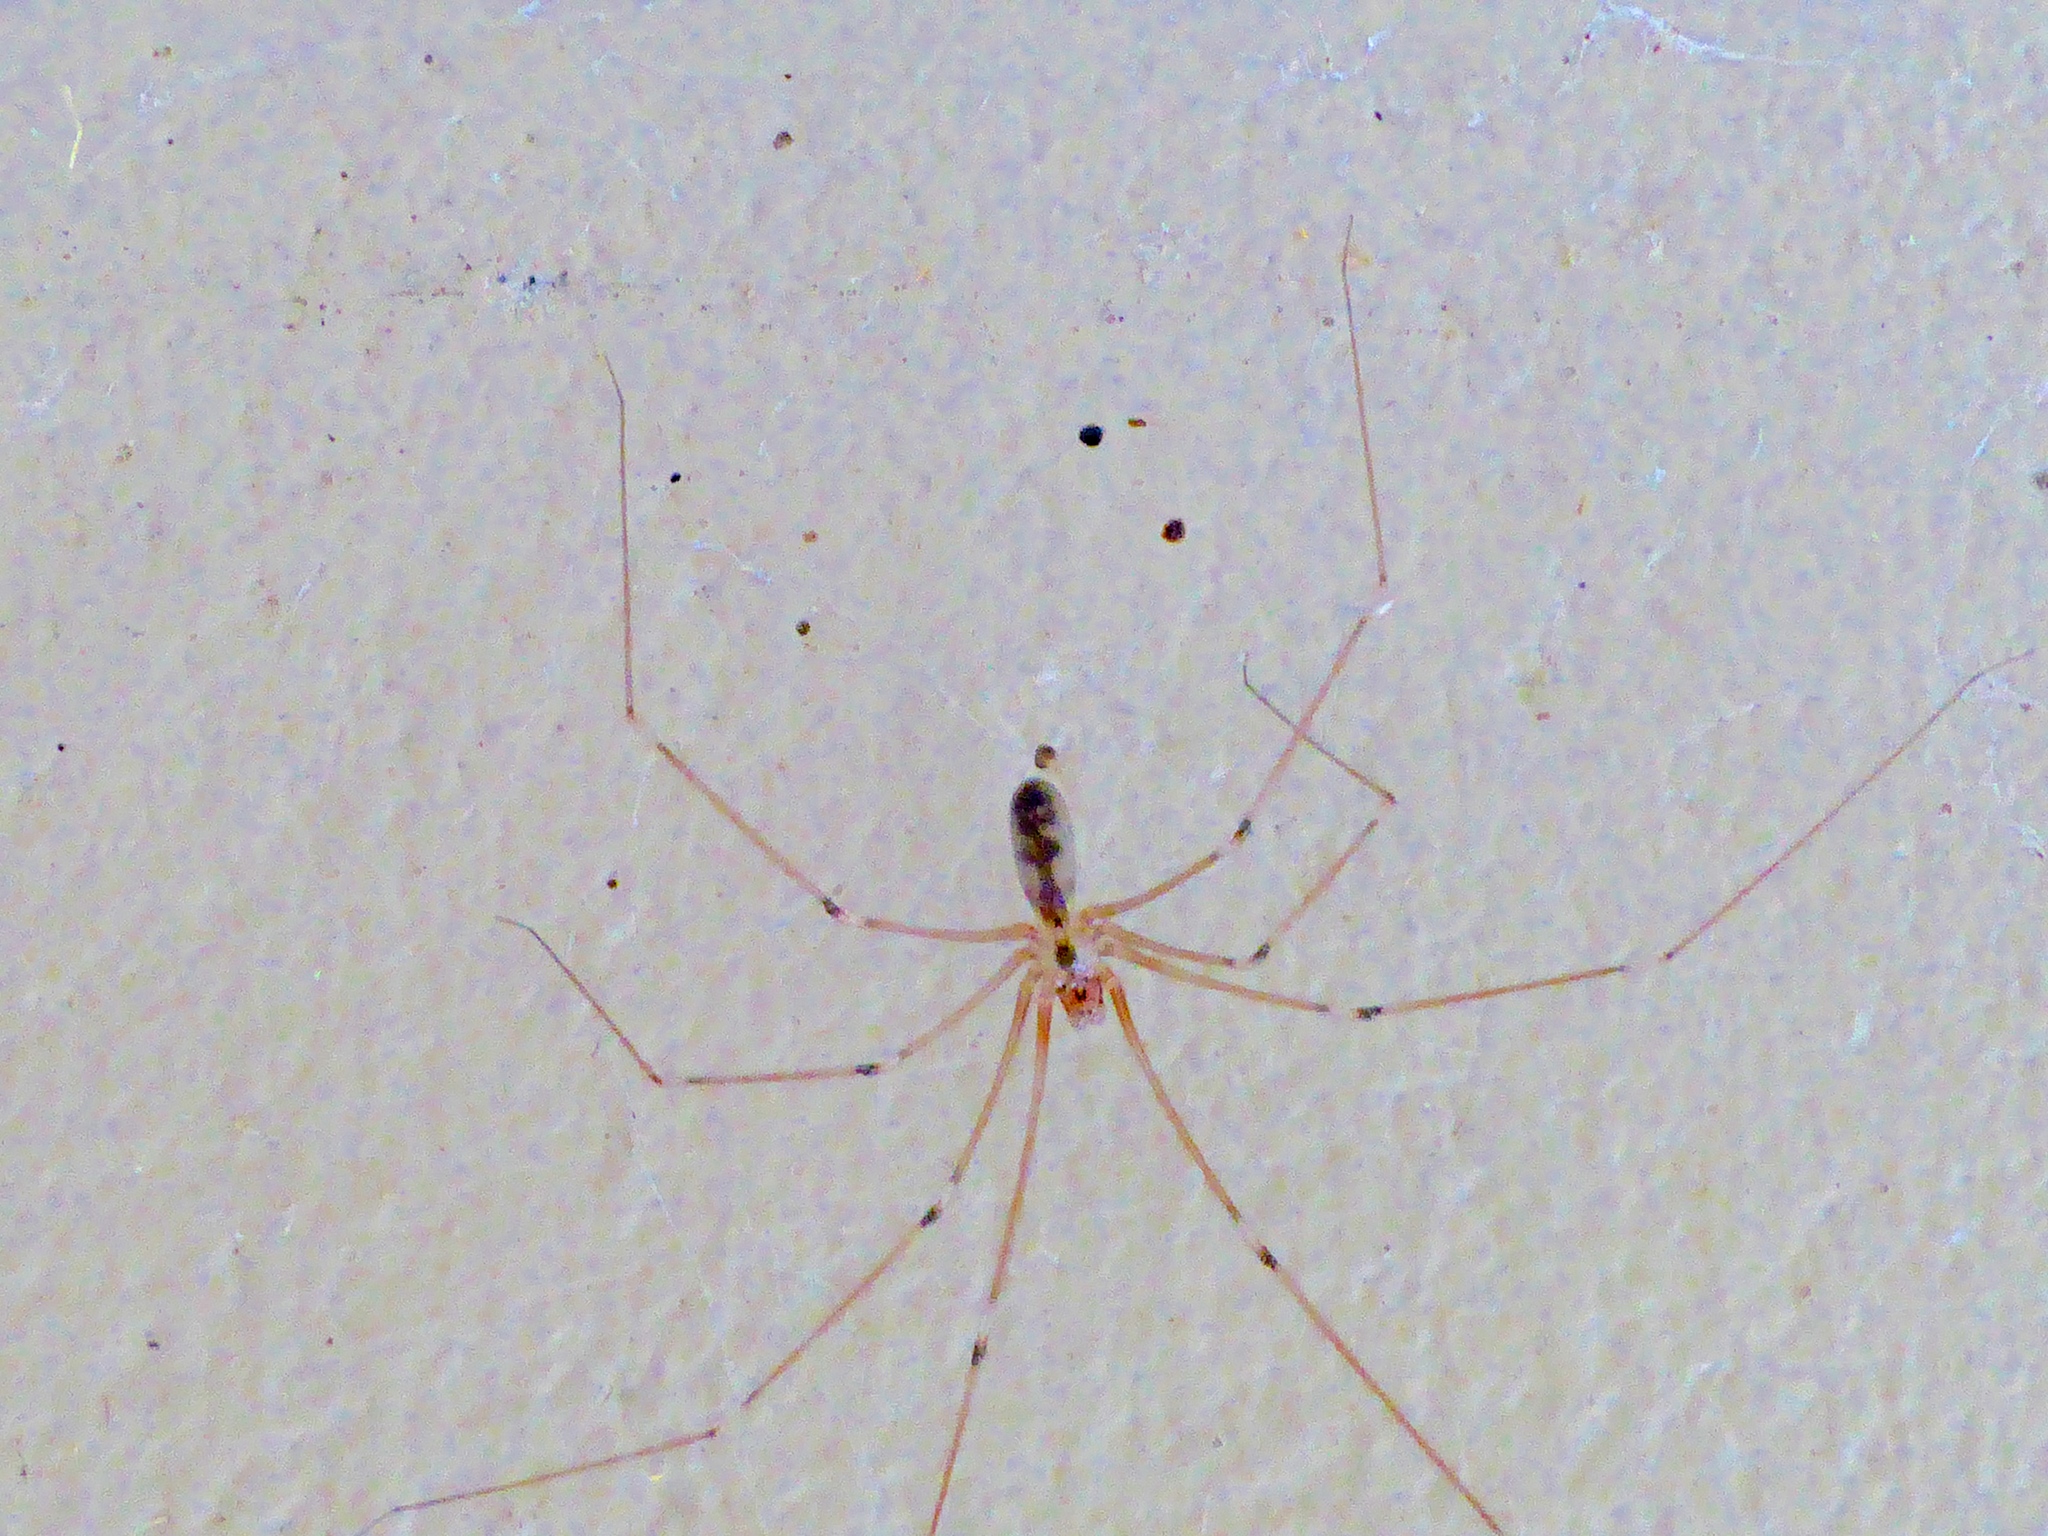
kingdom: Animalia
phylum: Arthropoda
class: Arachnida
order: Araneae
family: Pholcidae
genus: Pholcus
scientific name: Pholcus phalangioides
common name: Longbodied cellar spider
